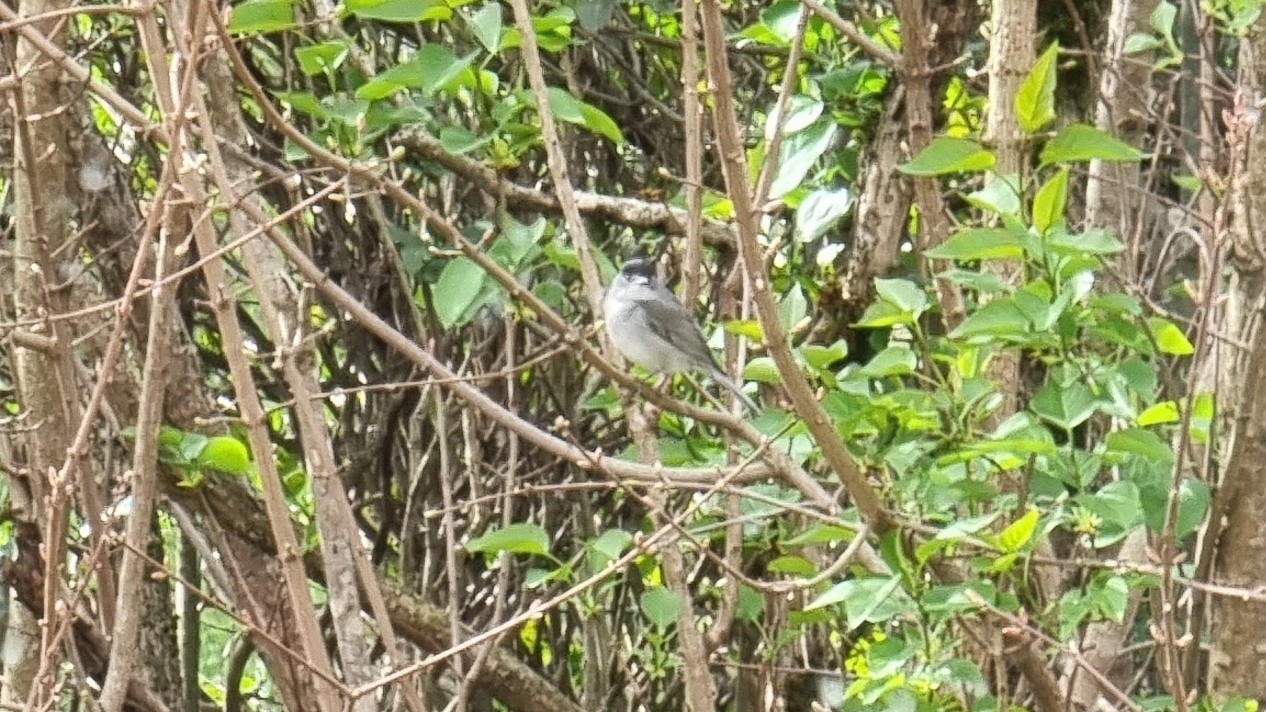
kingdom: Animalia
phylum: Chordata
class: Aves
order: Passeriformes
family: Sylviidae
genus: Sylvia
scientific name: Sylvia atricapilla
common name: Eurasian blackcap
